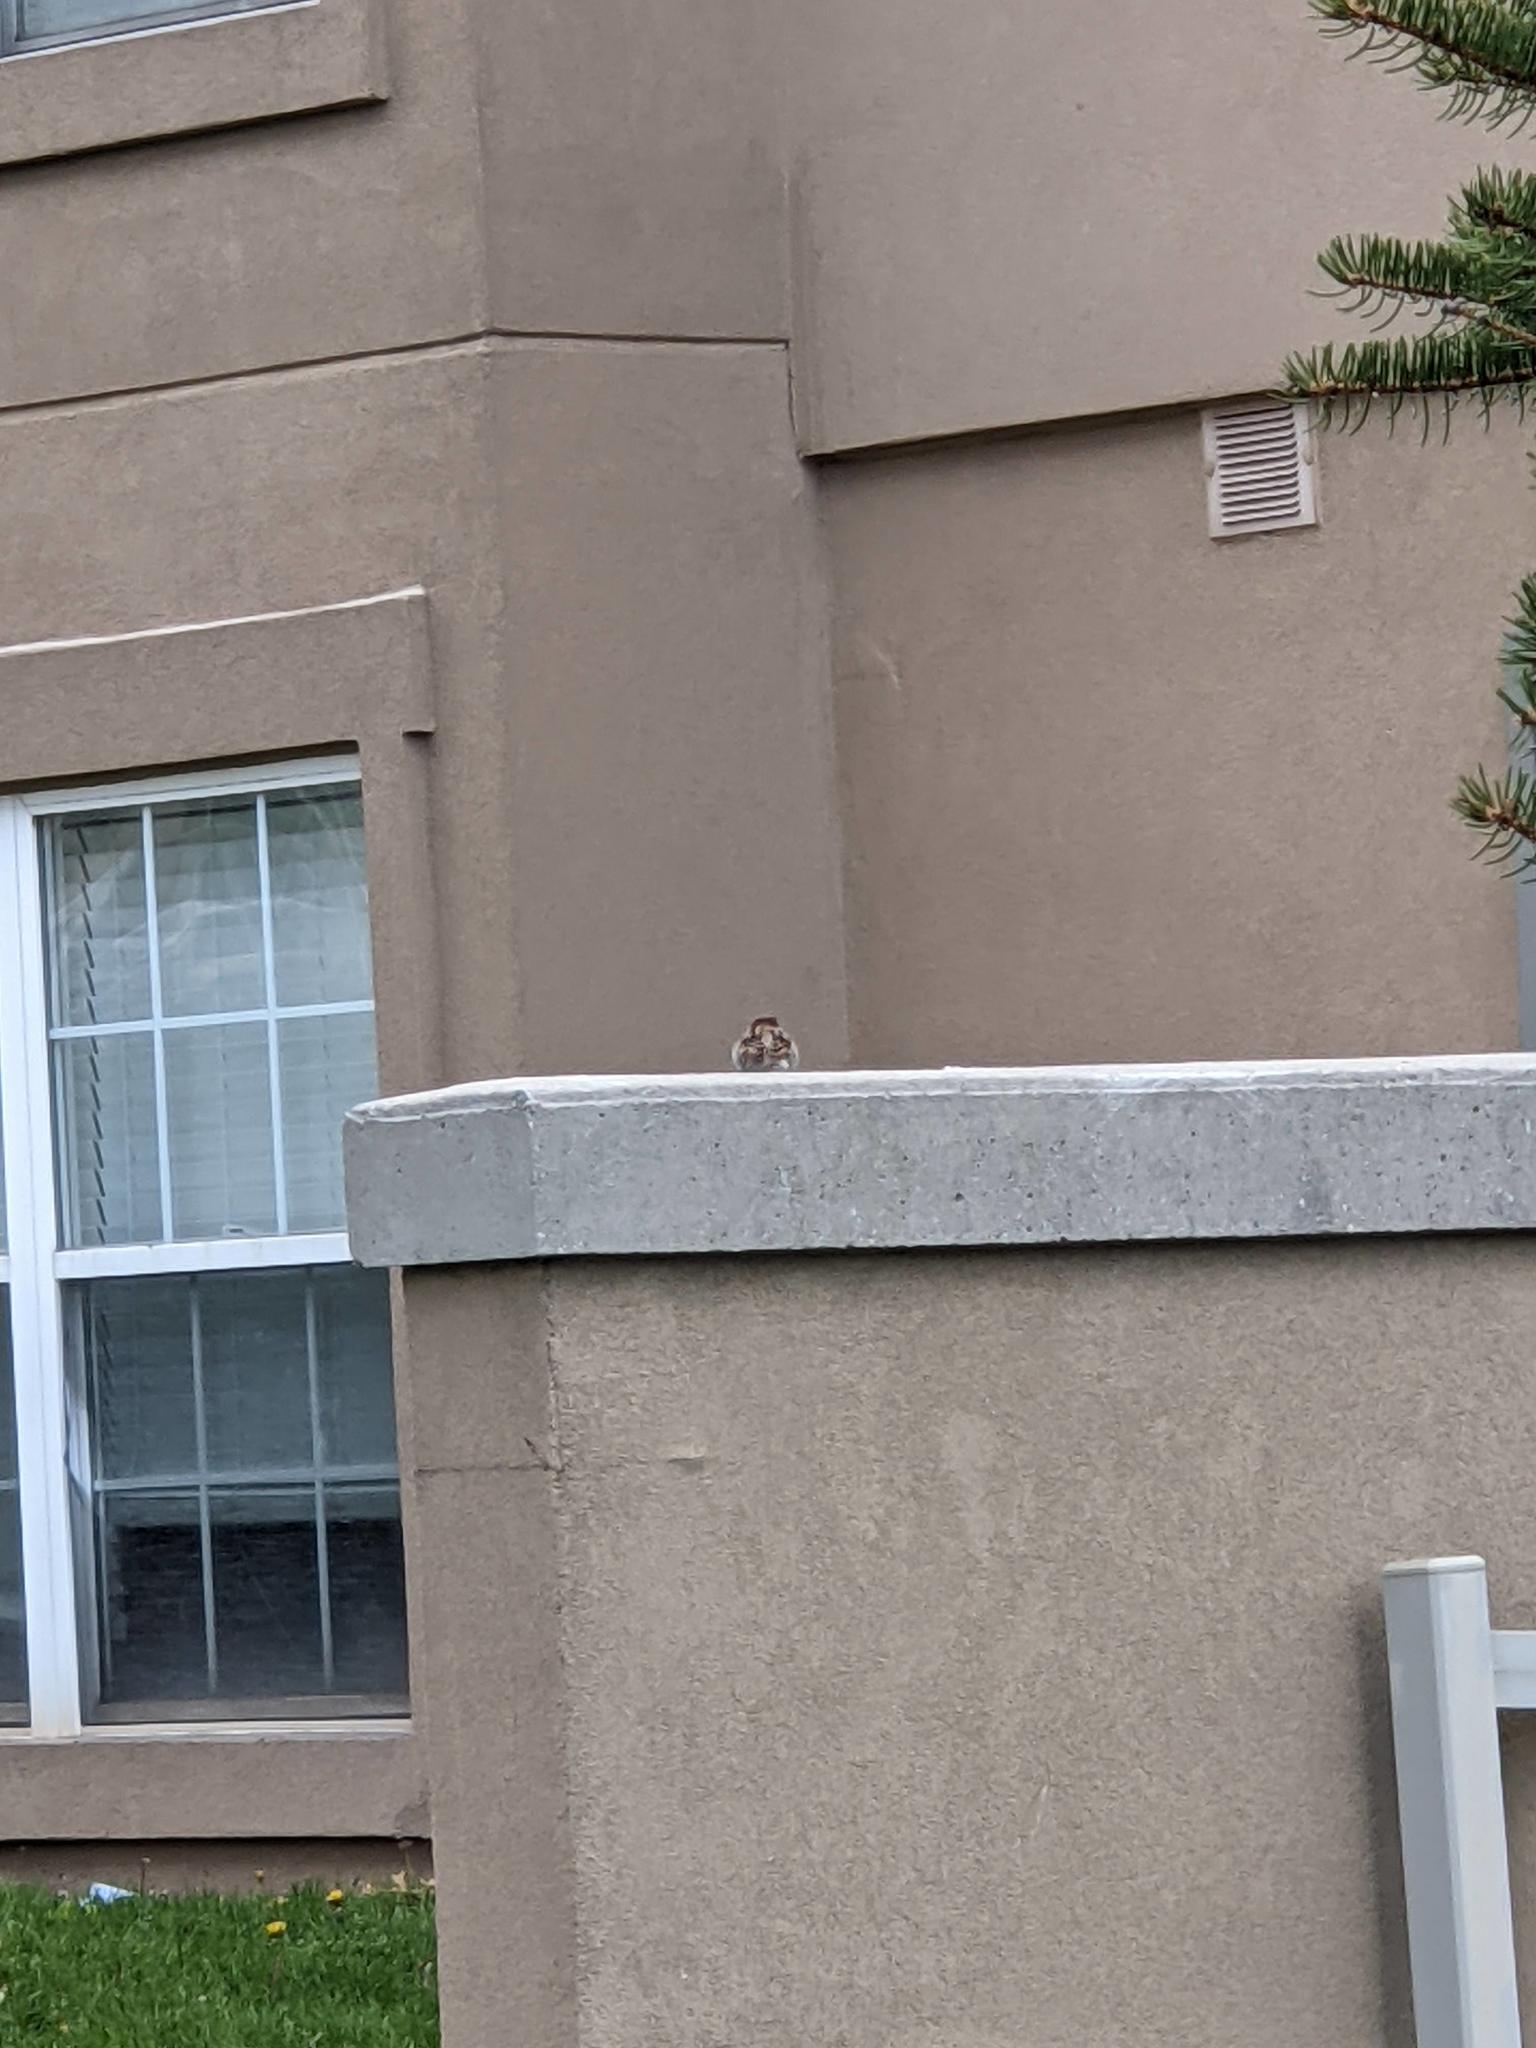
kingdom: Animalia
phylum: Chordata
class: Aves
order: Passeriformes
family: Passeridae
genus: Passer
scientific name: Passer domesticus
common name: House sparrow
